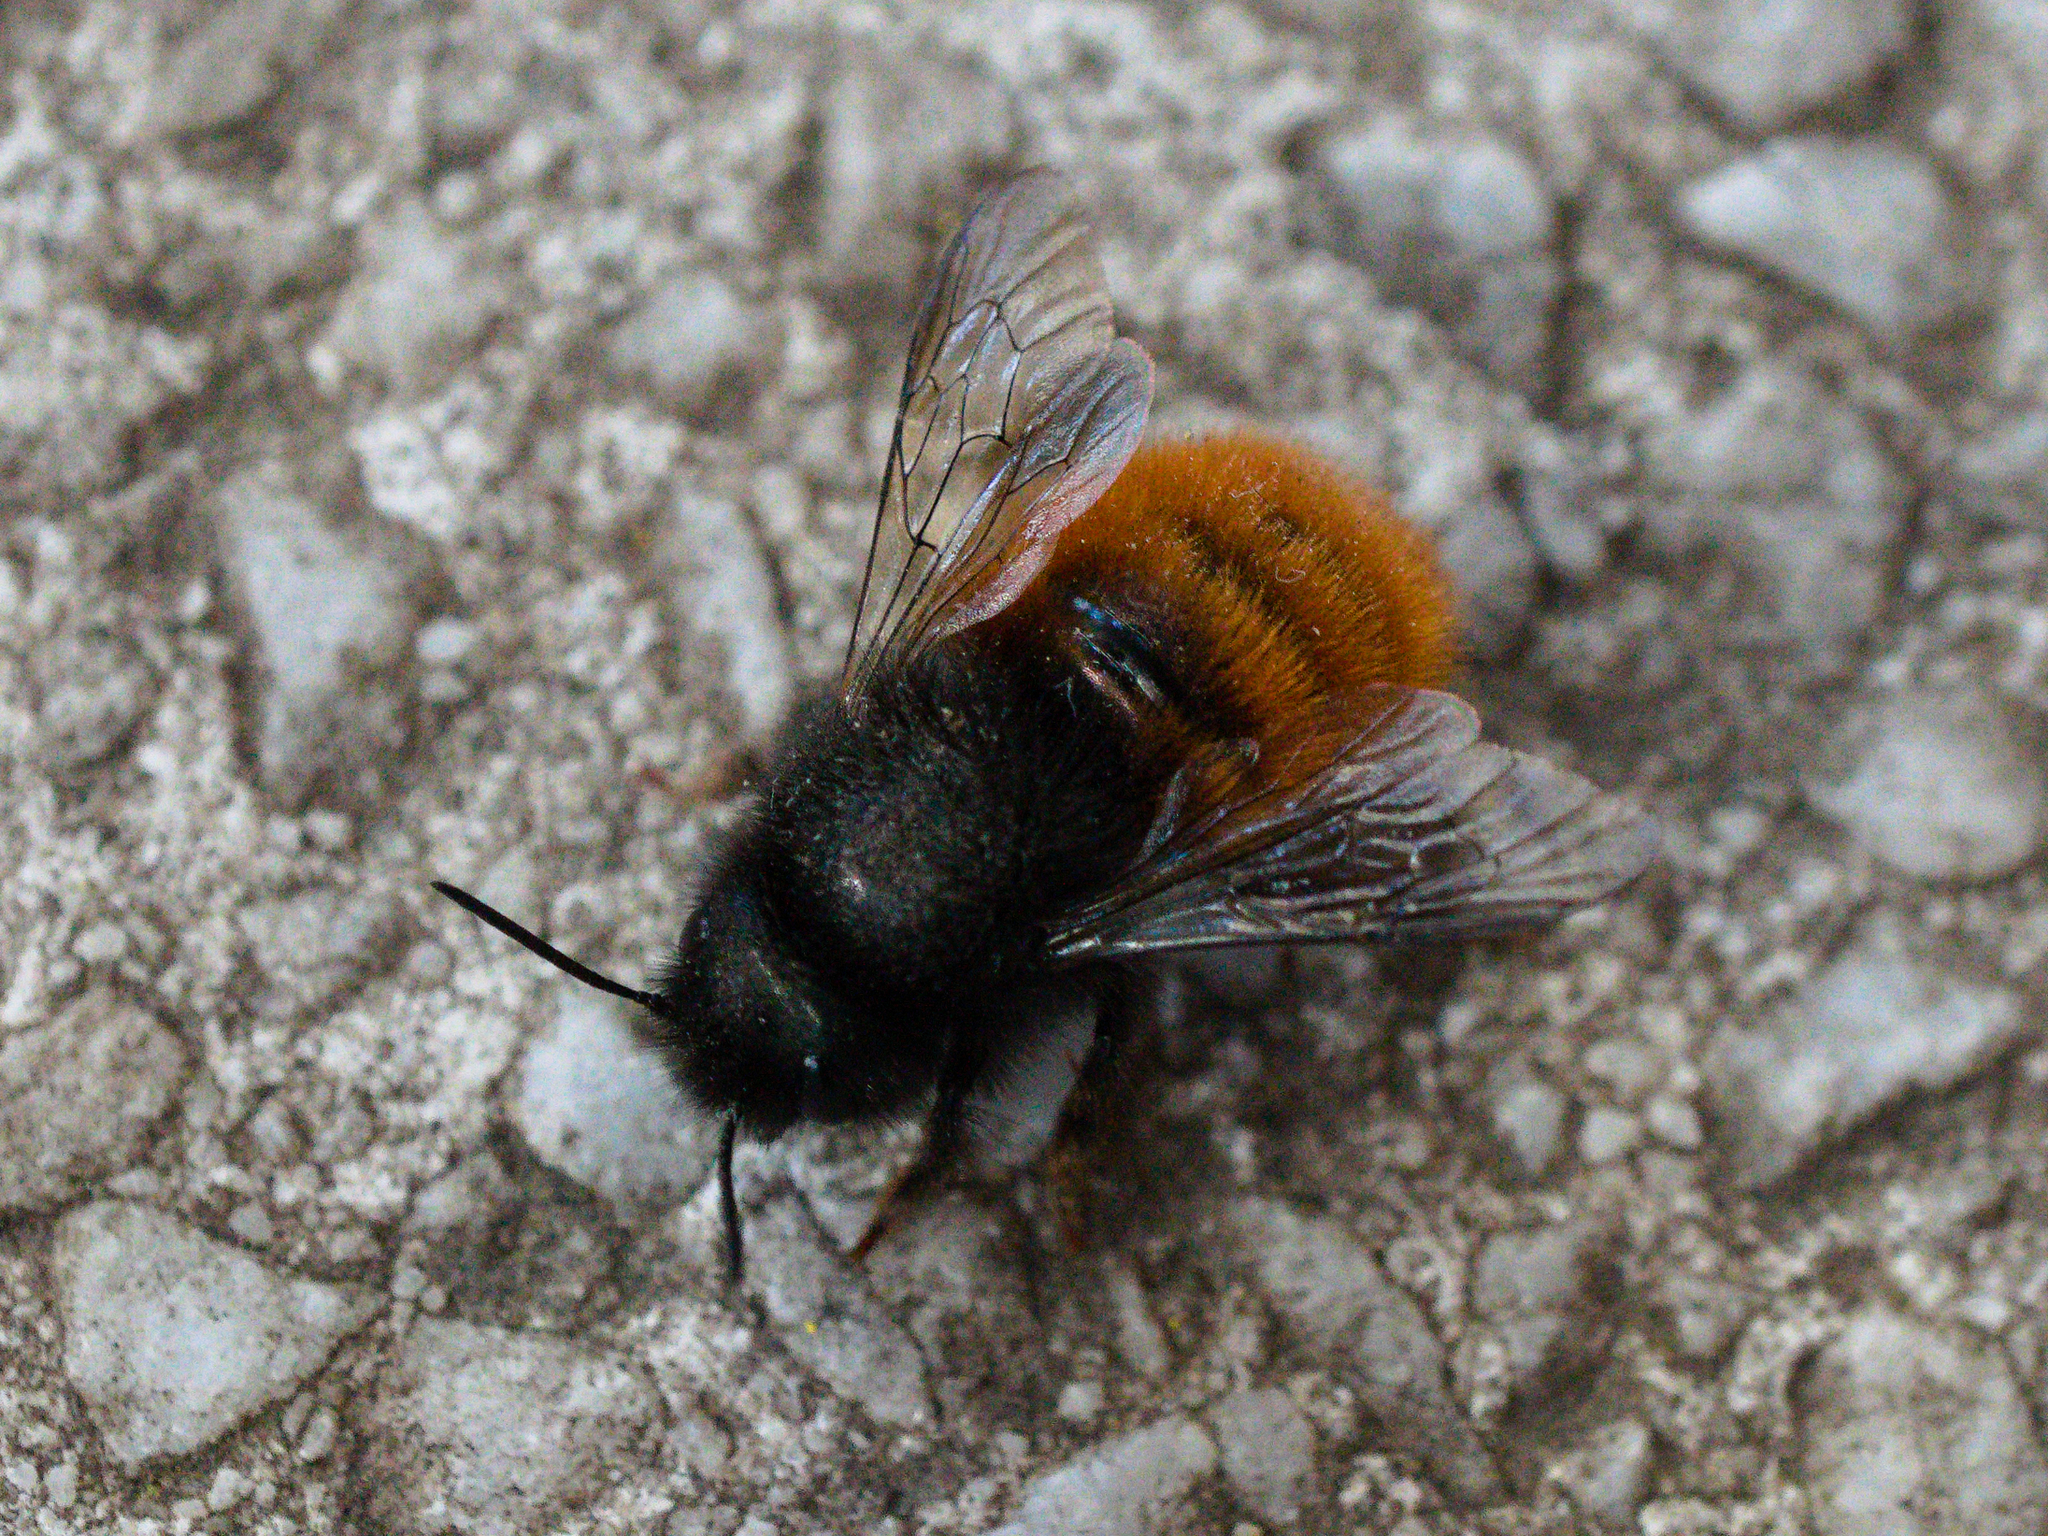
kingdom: Animalia
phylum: Arthropoda
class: Insecta
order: Hymenoptera
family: Megachilidae
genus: Osmia
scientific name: Osmia cornuta
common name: Mason bee
